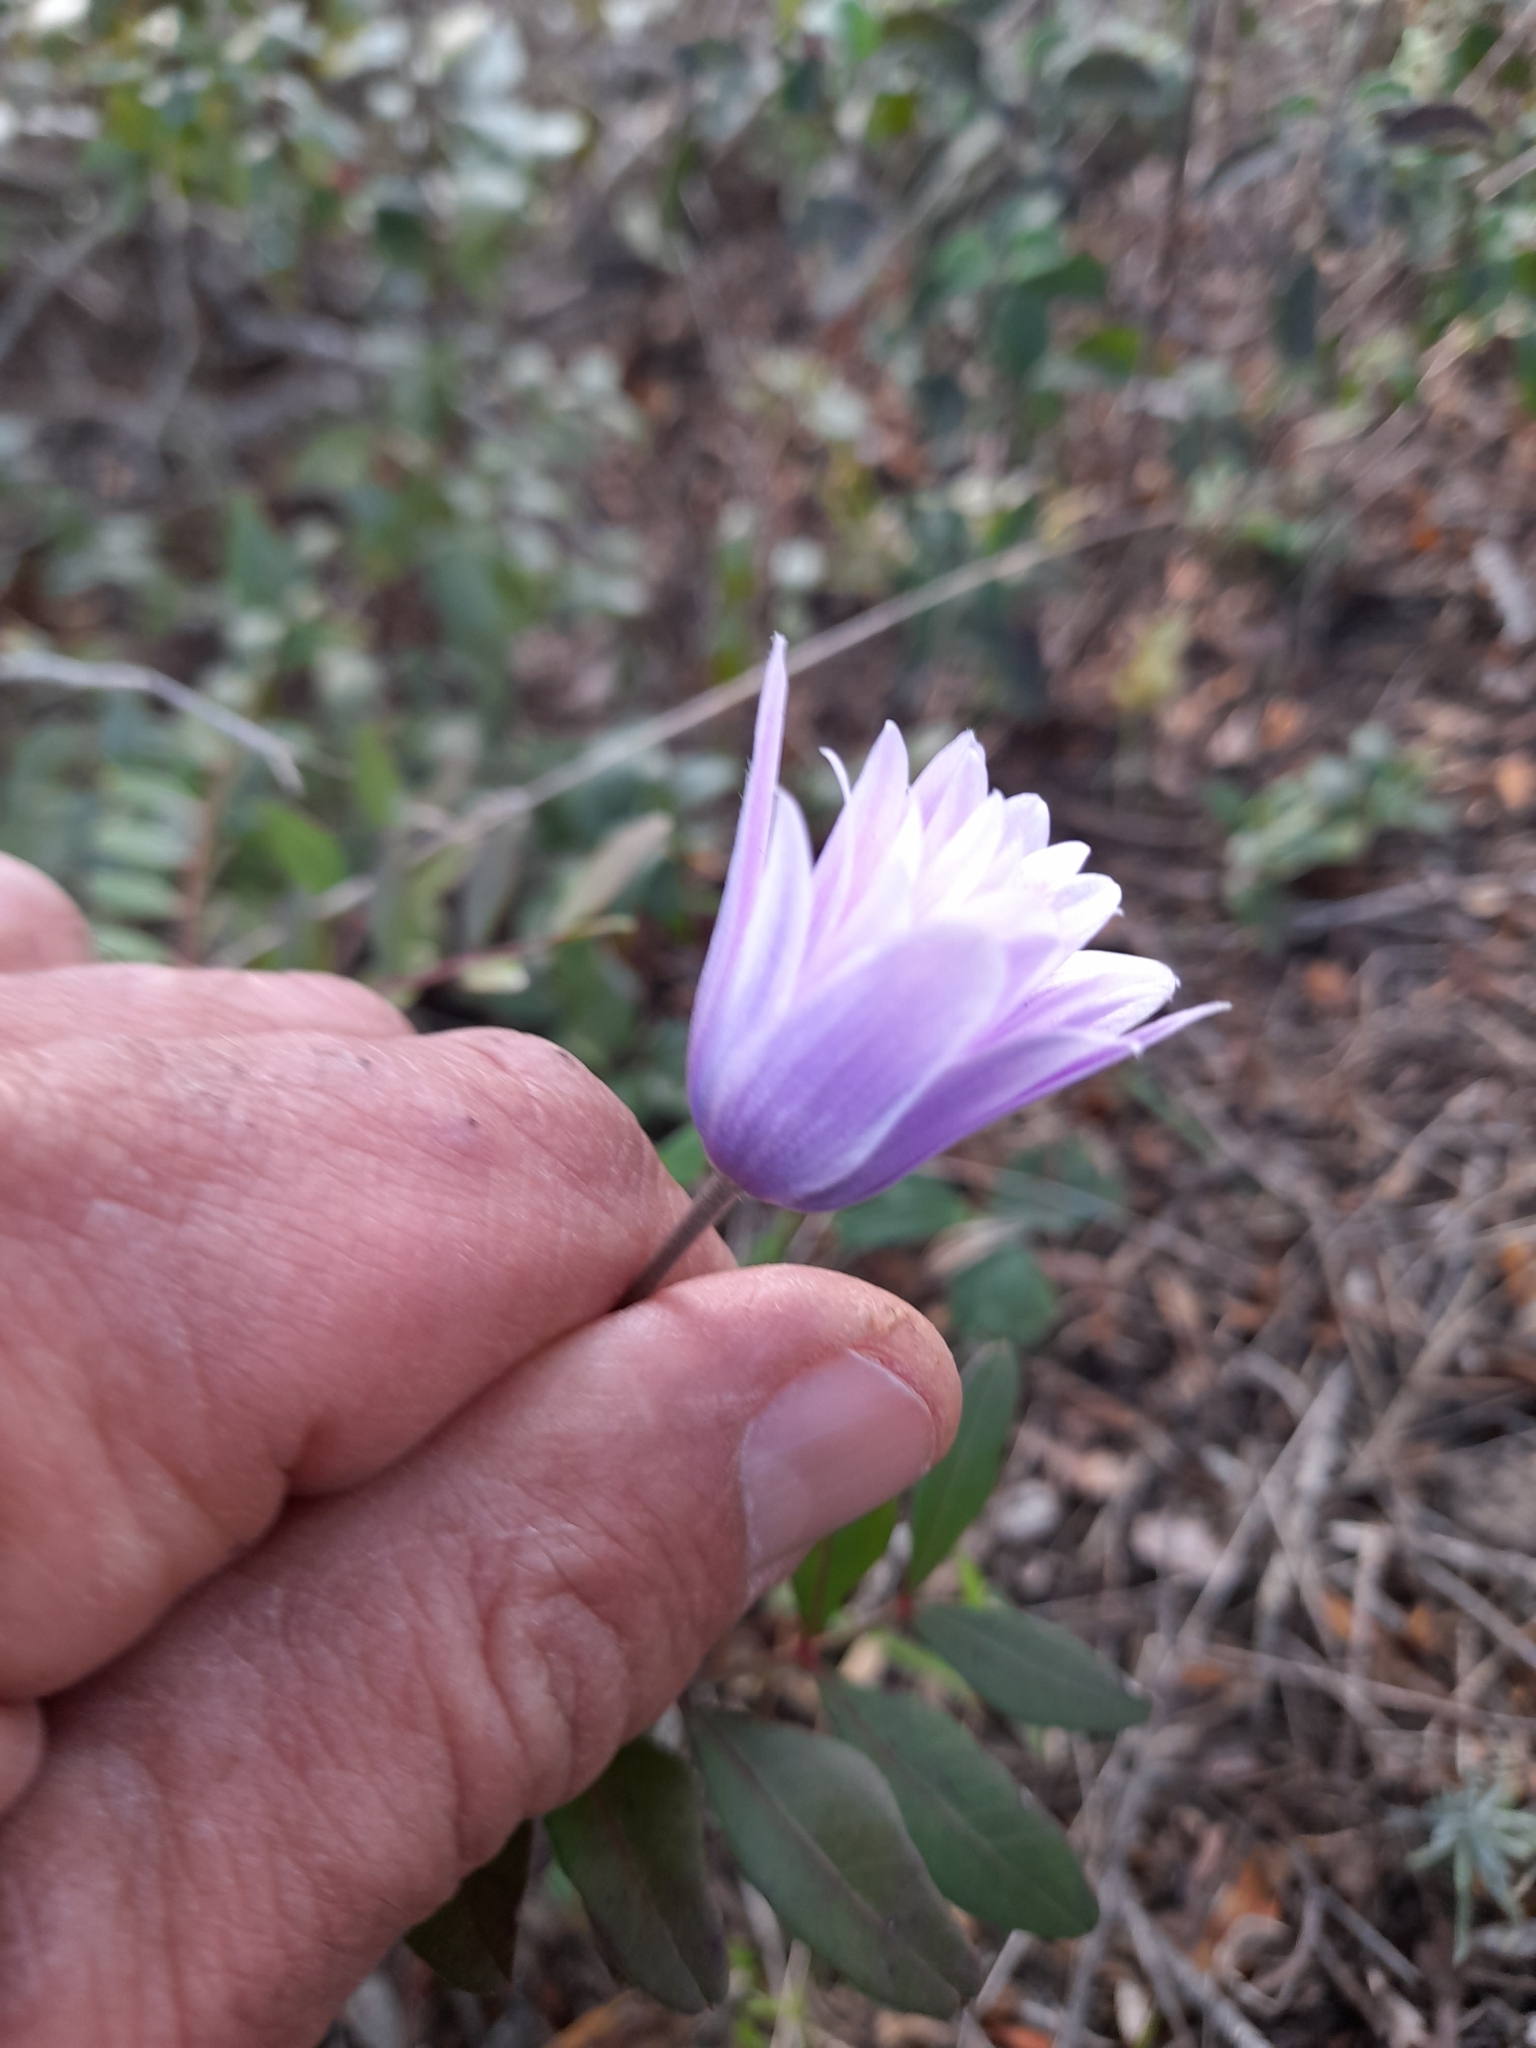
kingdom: Plantae
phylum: Tracheophyta
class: Magnoliopsida
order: Ranunculales
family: Ranunculaceae
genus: Anemone
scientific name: Anemone hortensis
